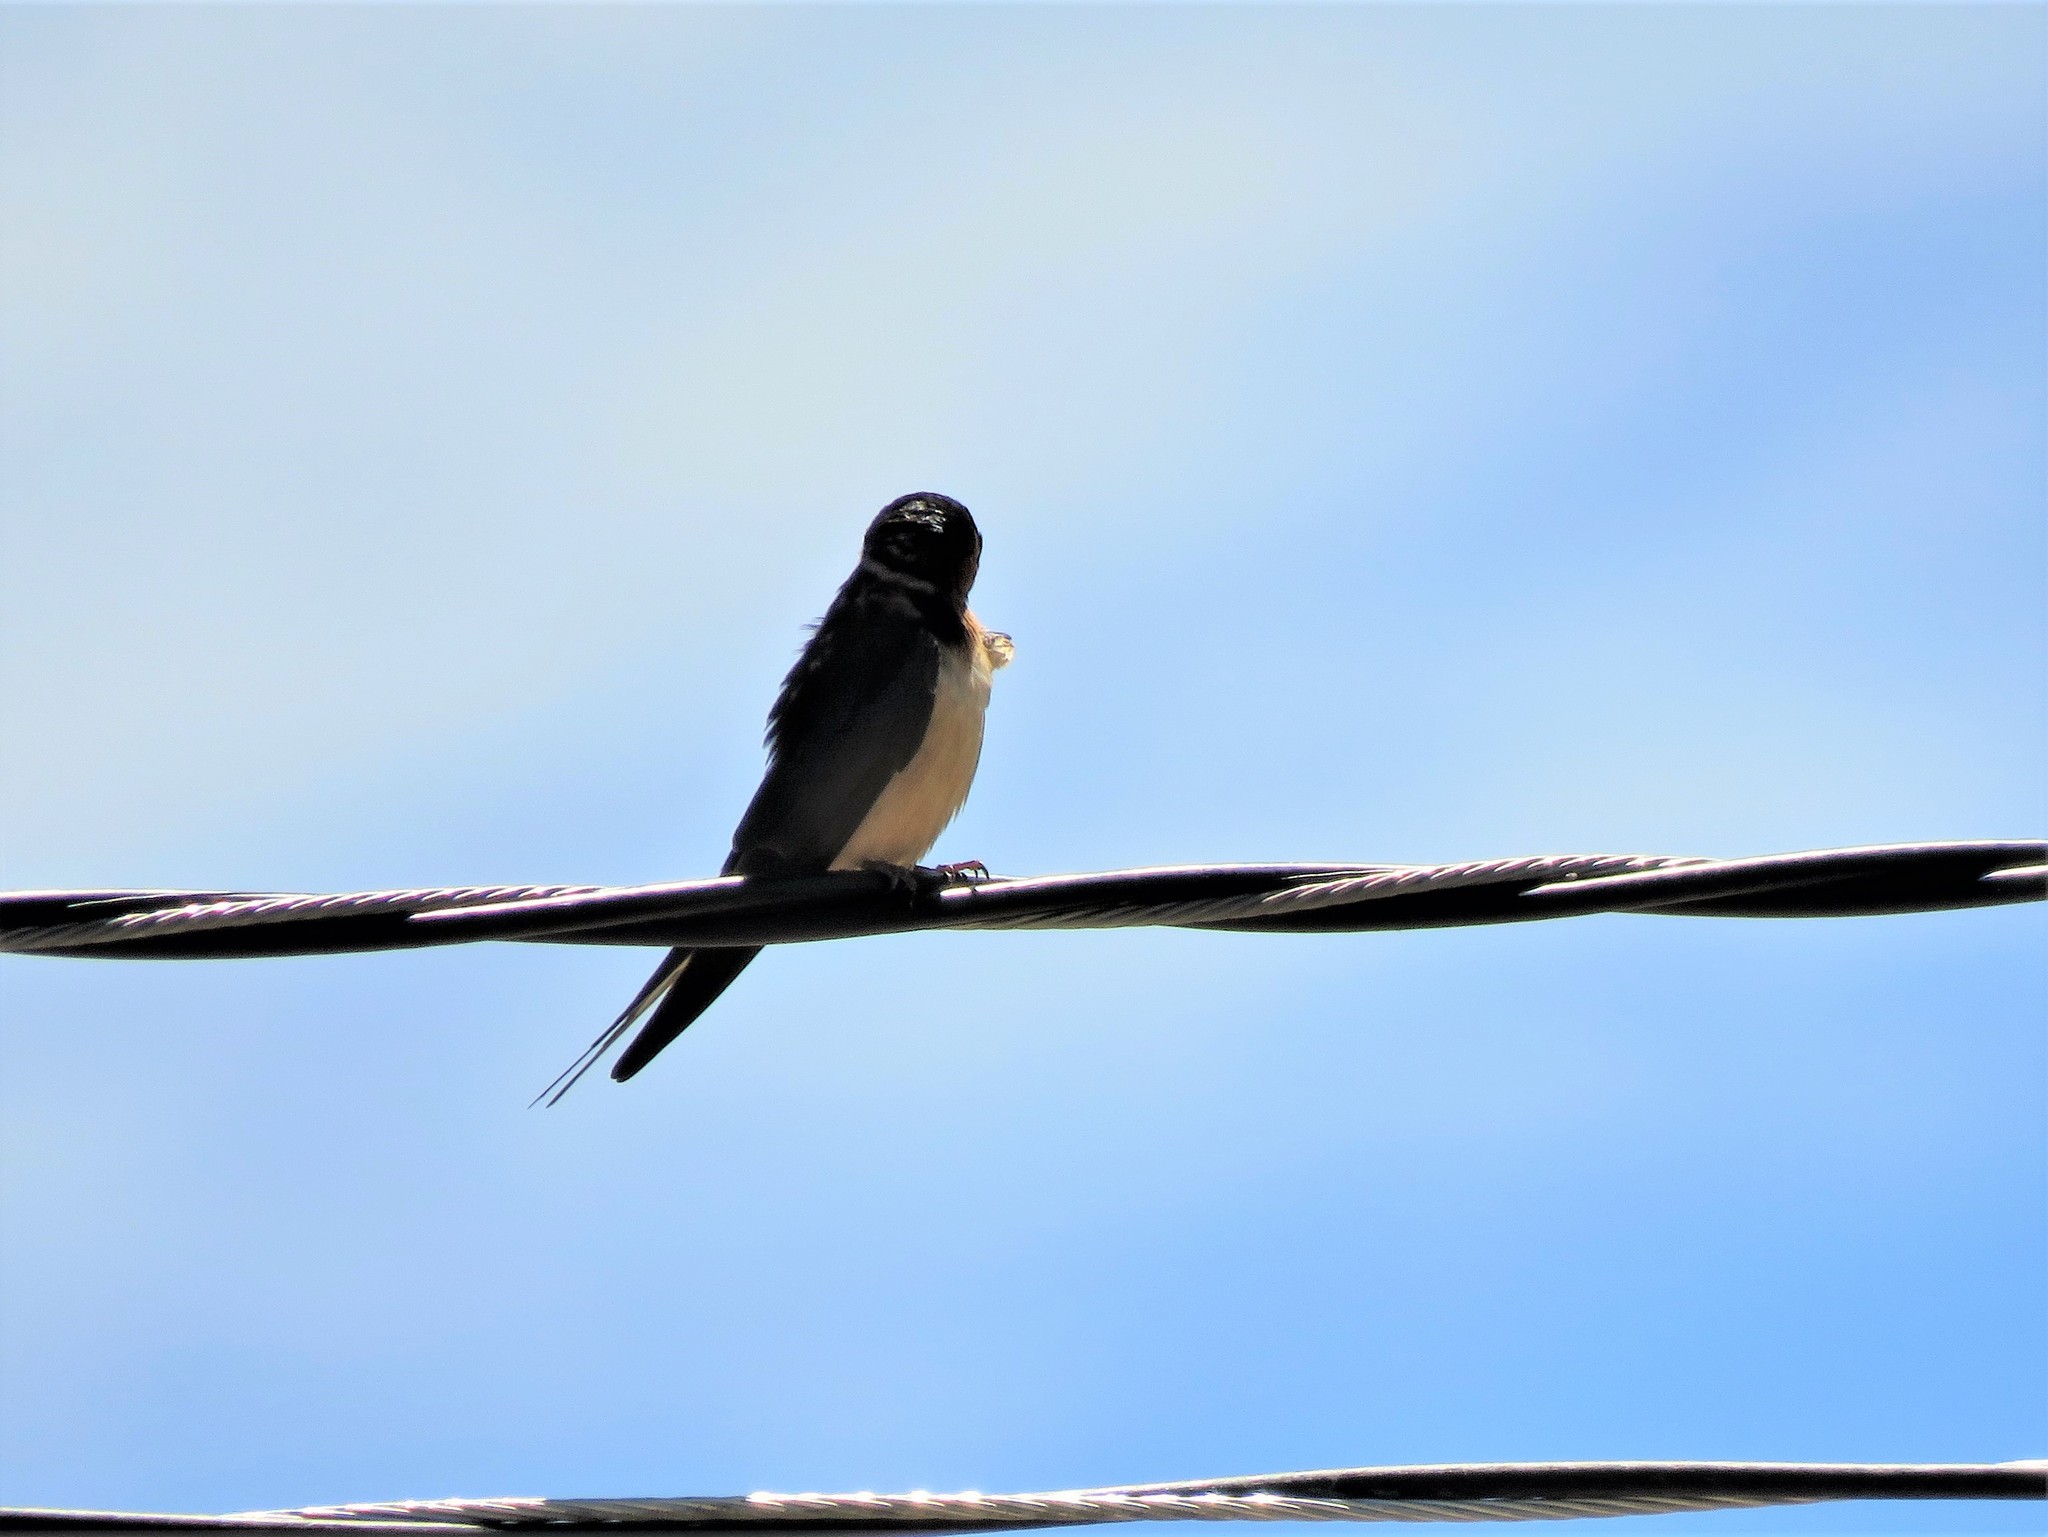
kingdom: Animalia
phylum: Chordata
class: Aves
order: Passeriformes
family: Hirundinidae
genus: Hirundo
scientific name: Hirundo rustica
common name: Barn swallow
